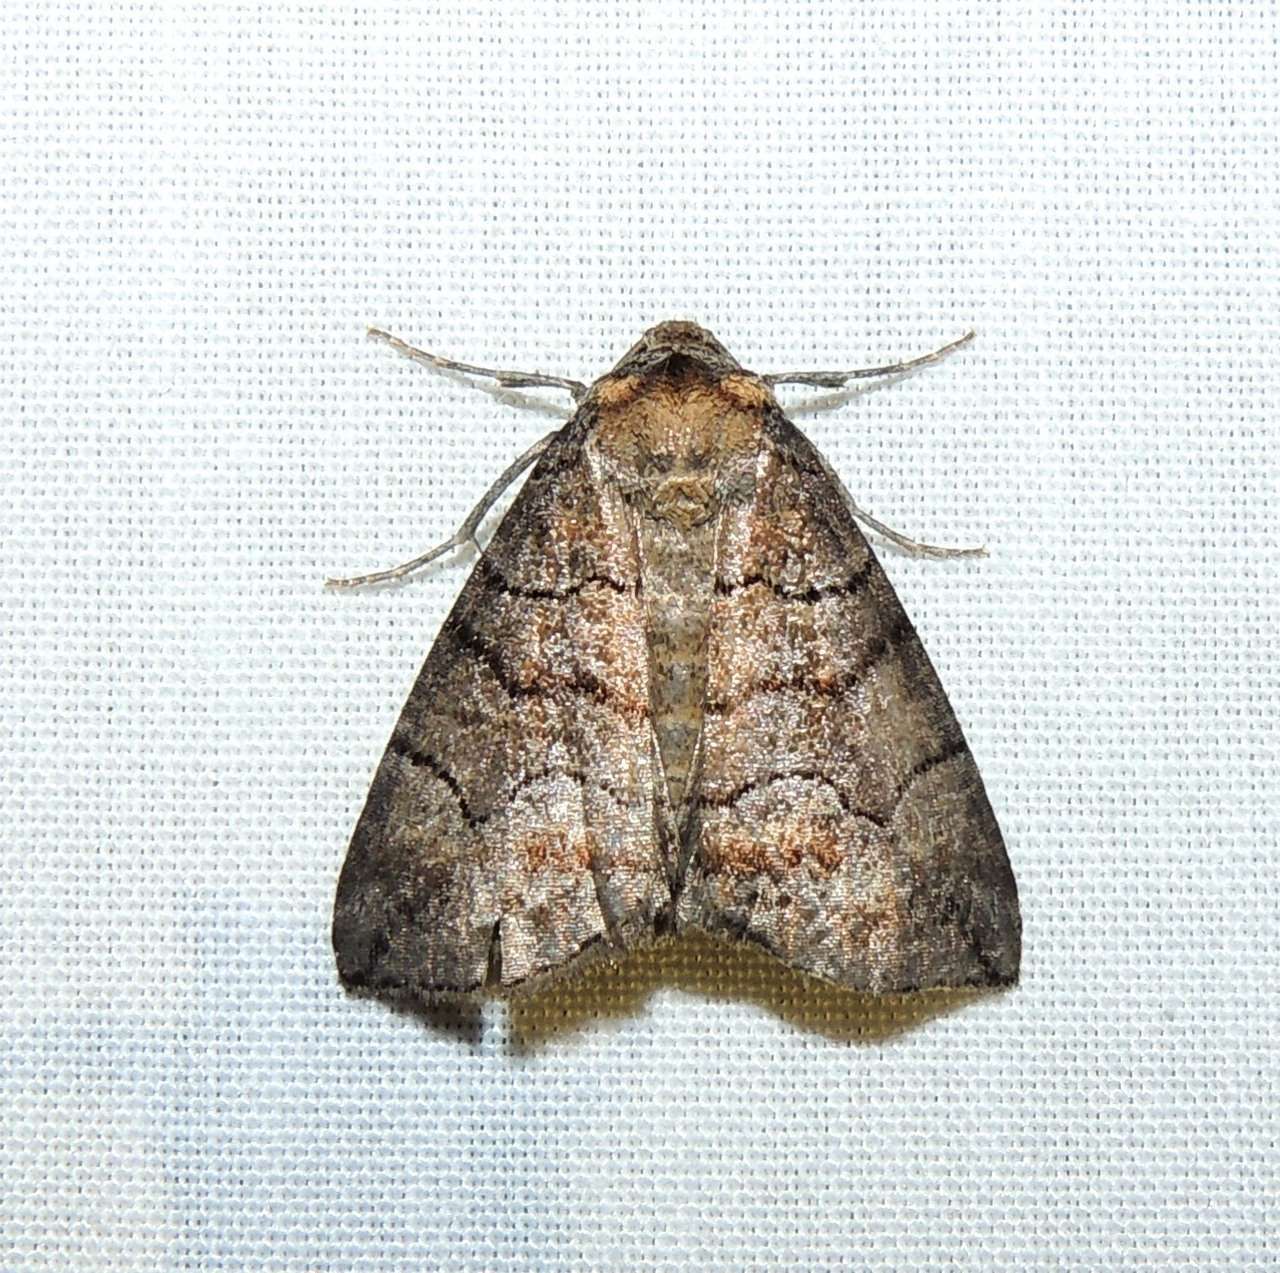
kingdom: Animalia
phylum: Arthropoda
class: Insecta
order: Lepidoptera
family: Geometridae
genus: Dysbatus
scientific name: Dysbatus
